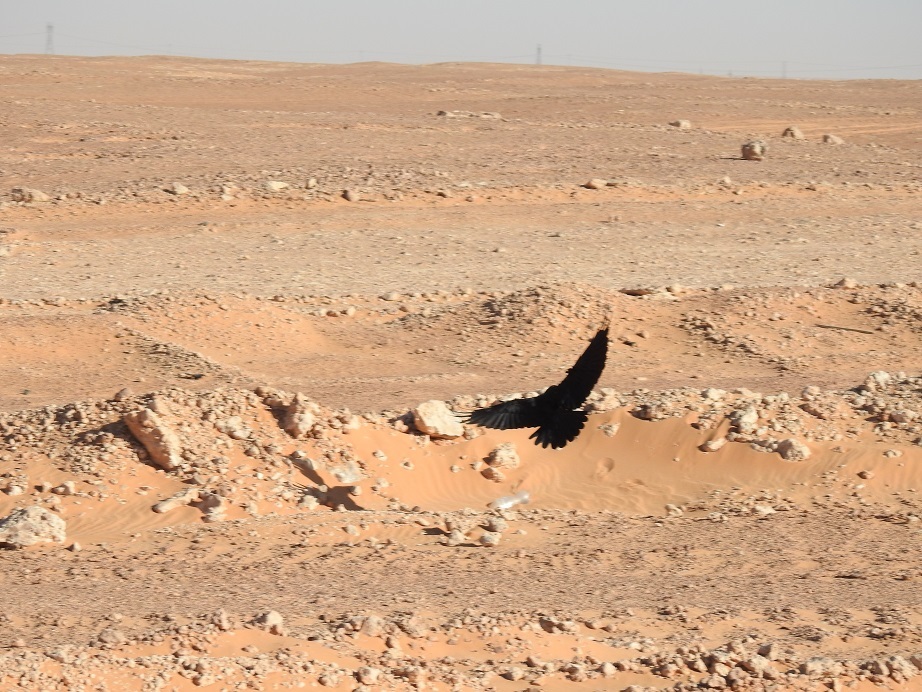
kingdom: Animalia
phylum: Chordata
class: Aves
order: Passeriformes
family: Corvidae
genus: Corvus
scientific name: Corvus corax
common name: Common raven
